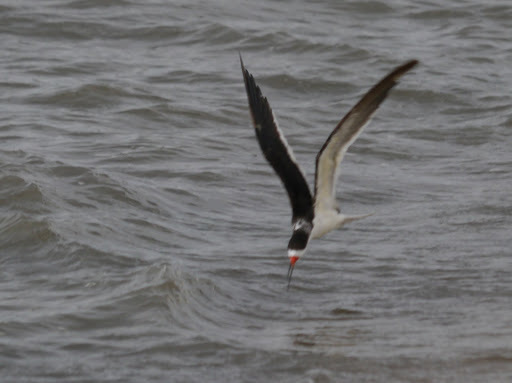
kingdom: Animalia
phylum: Chordata
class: Aves
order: Charadriiformes
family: Laridae
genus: Rynchops
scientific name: Rynchops niger
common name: Black skimmer
